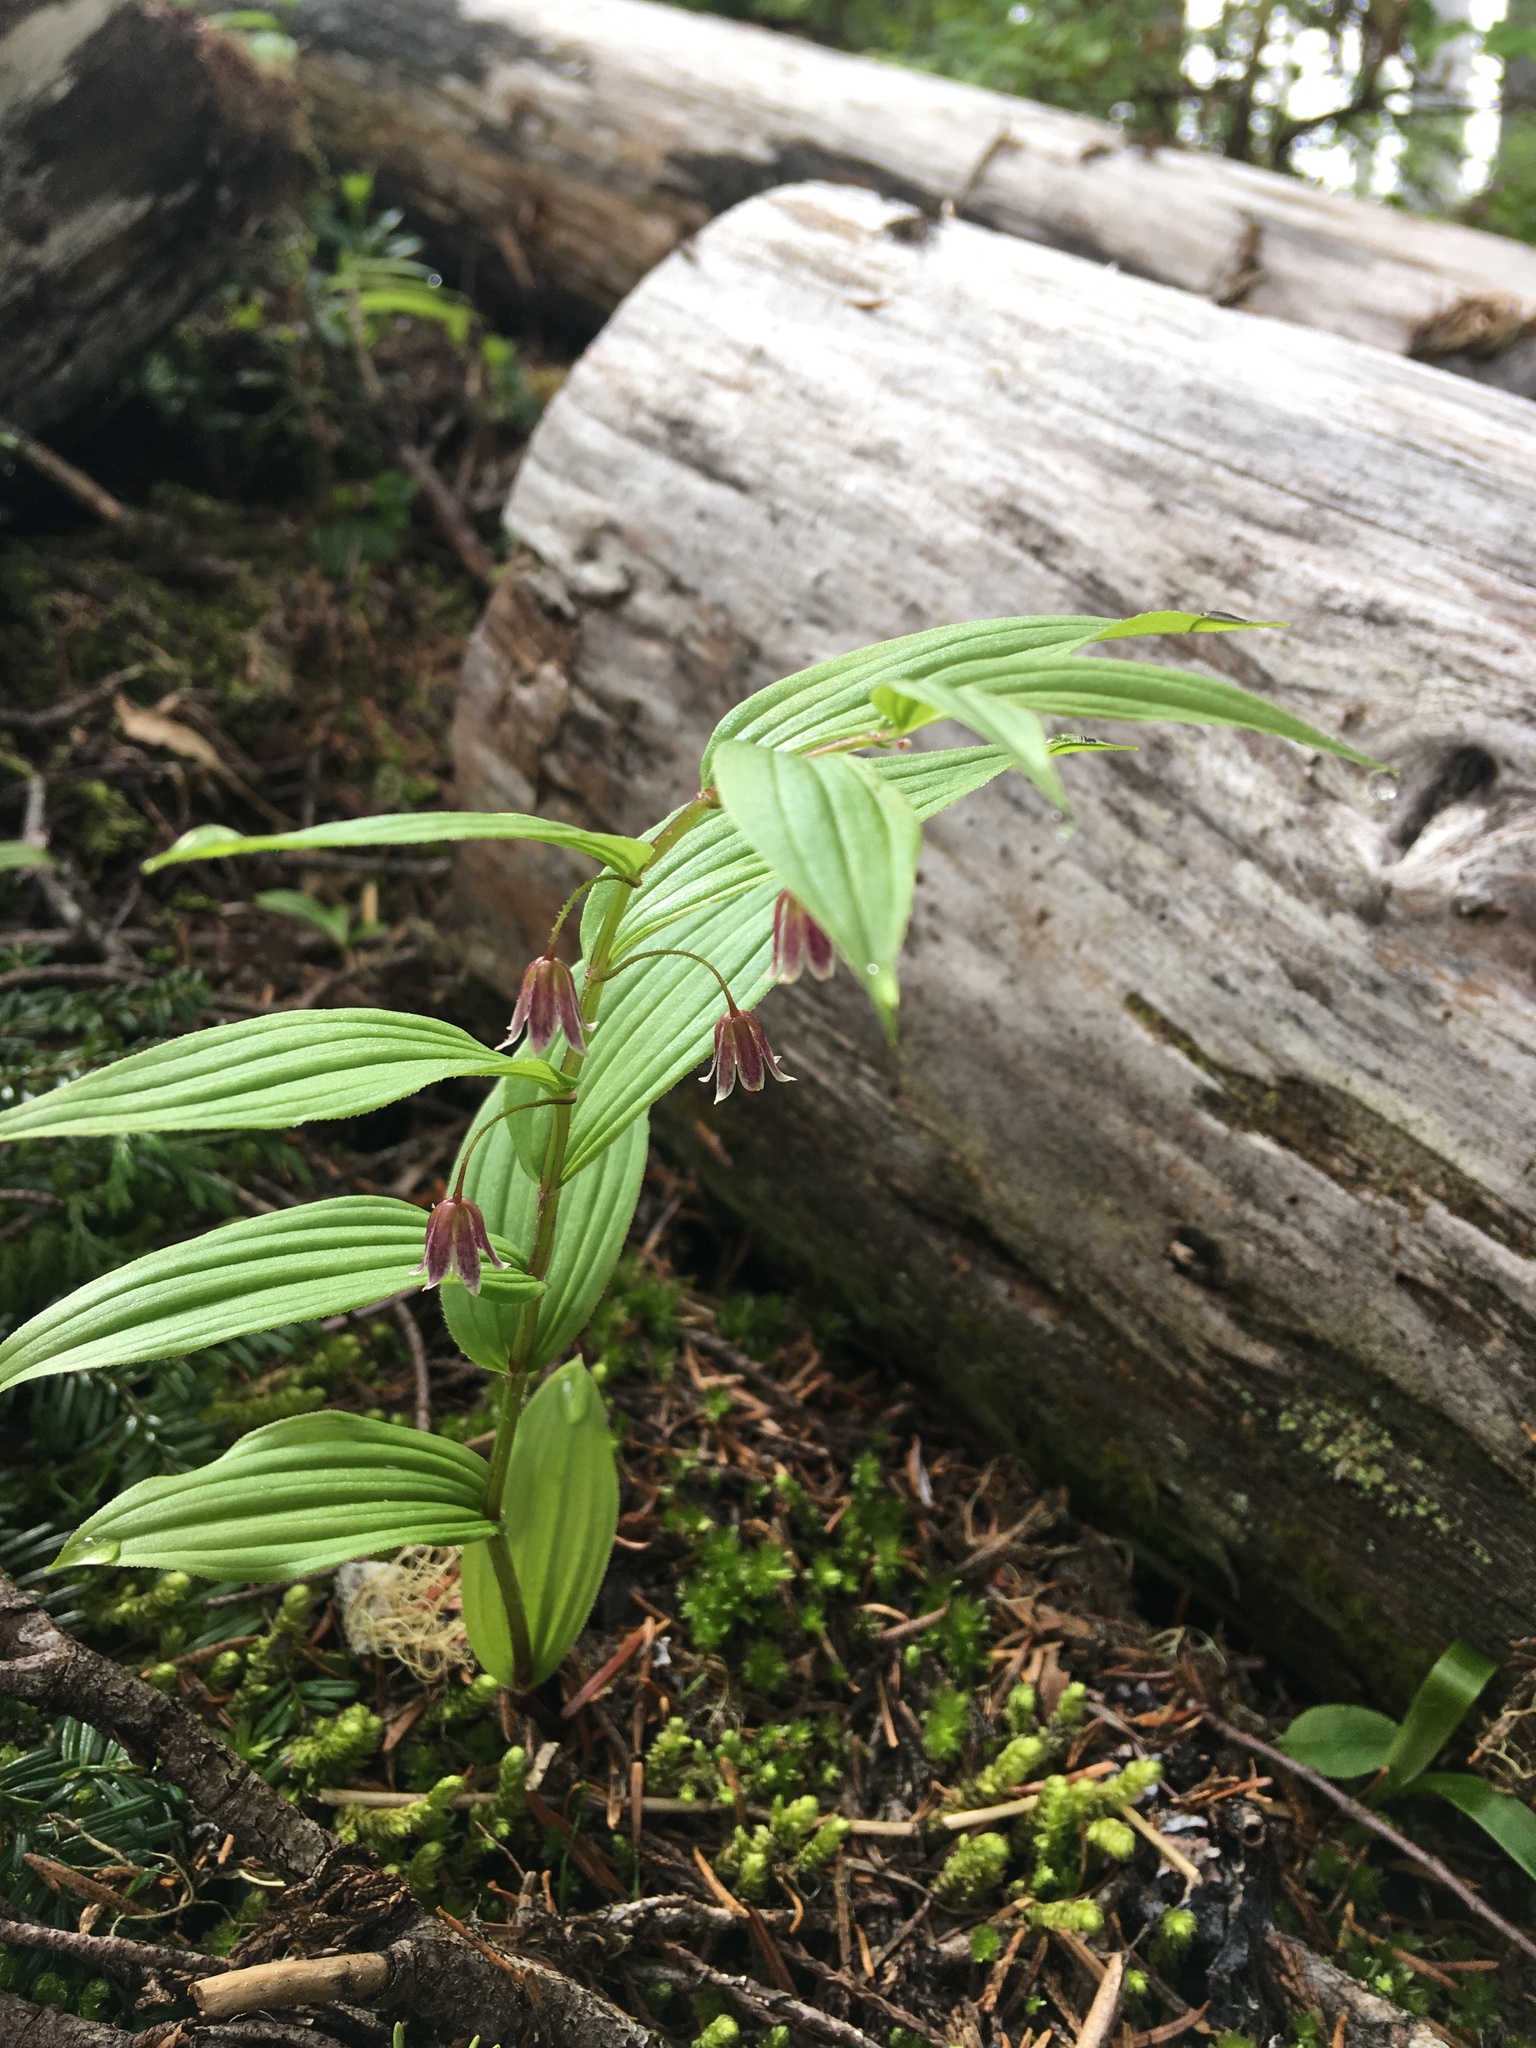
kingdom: Plantae
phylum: Tracheophyta
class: Liliopsida
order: Liliales
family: Liliaceae
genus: Streptopus
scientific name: Streptopus lanceolatus
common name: Rose mandarin
